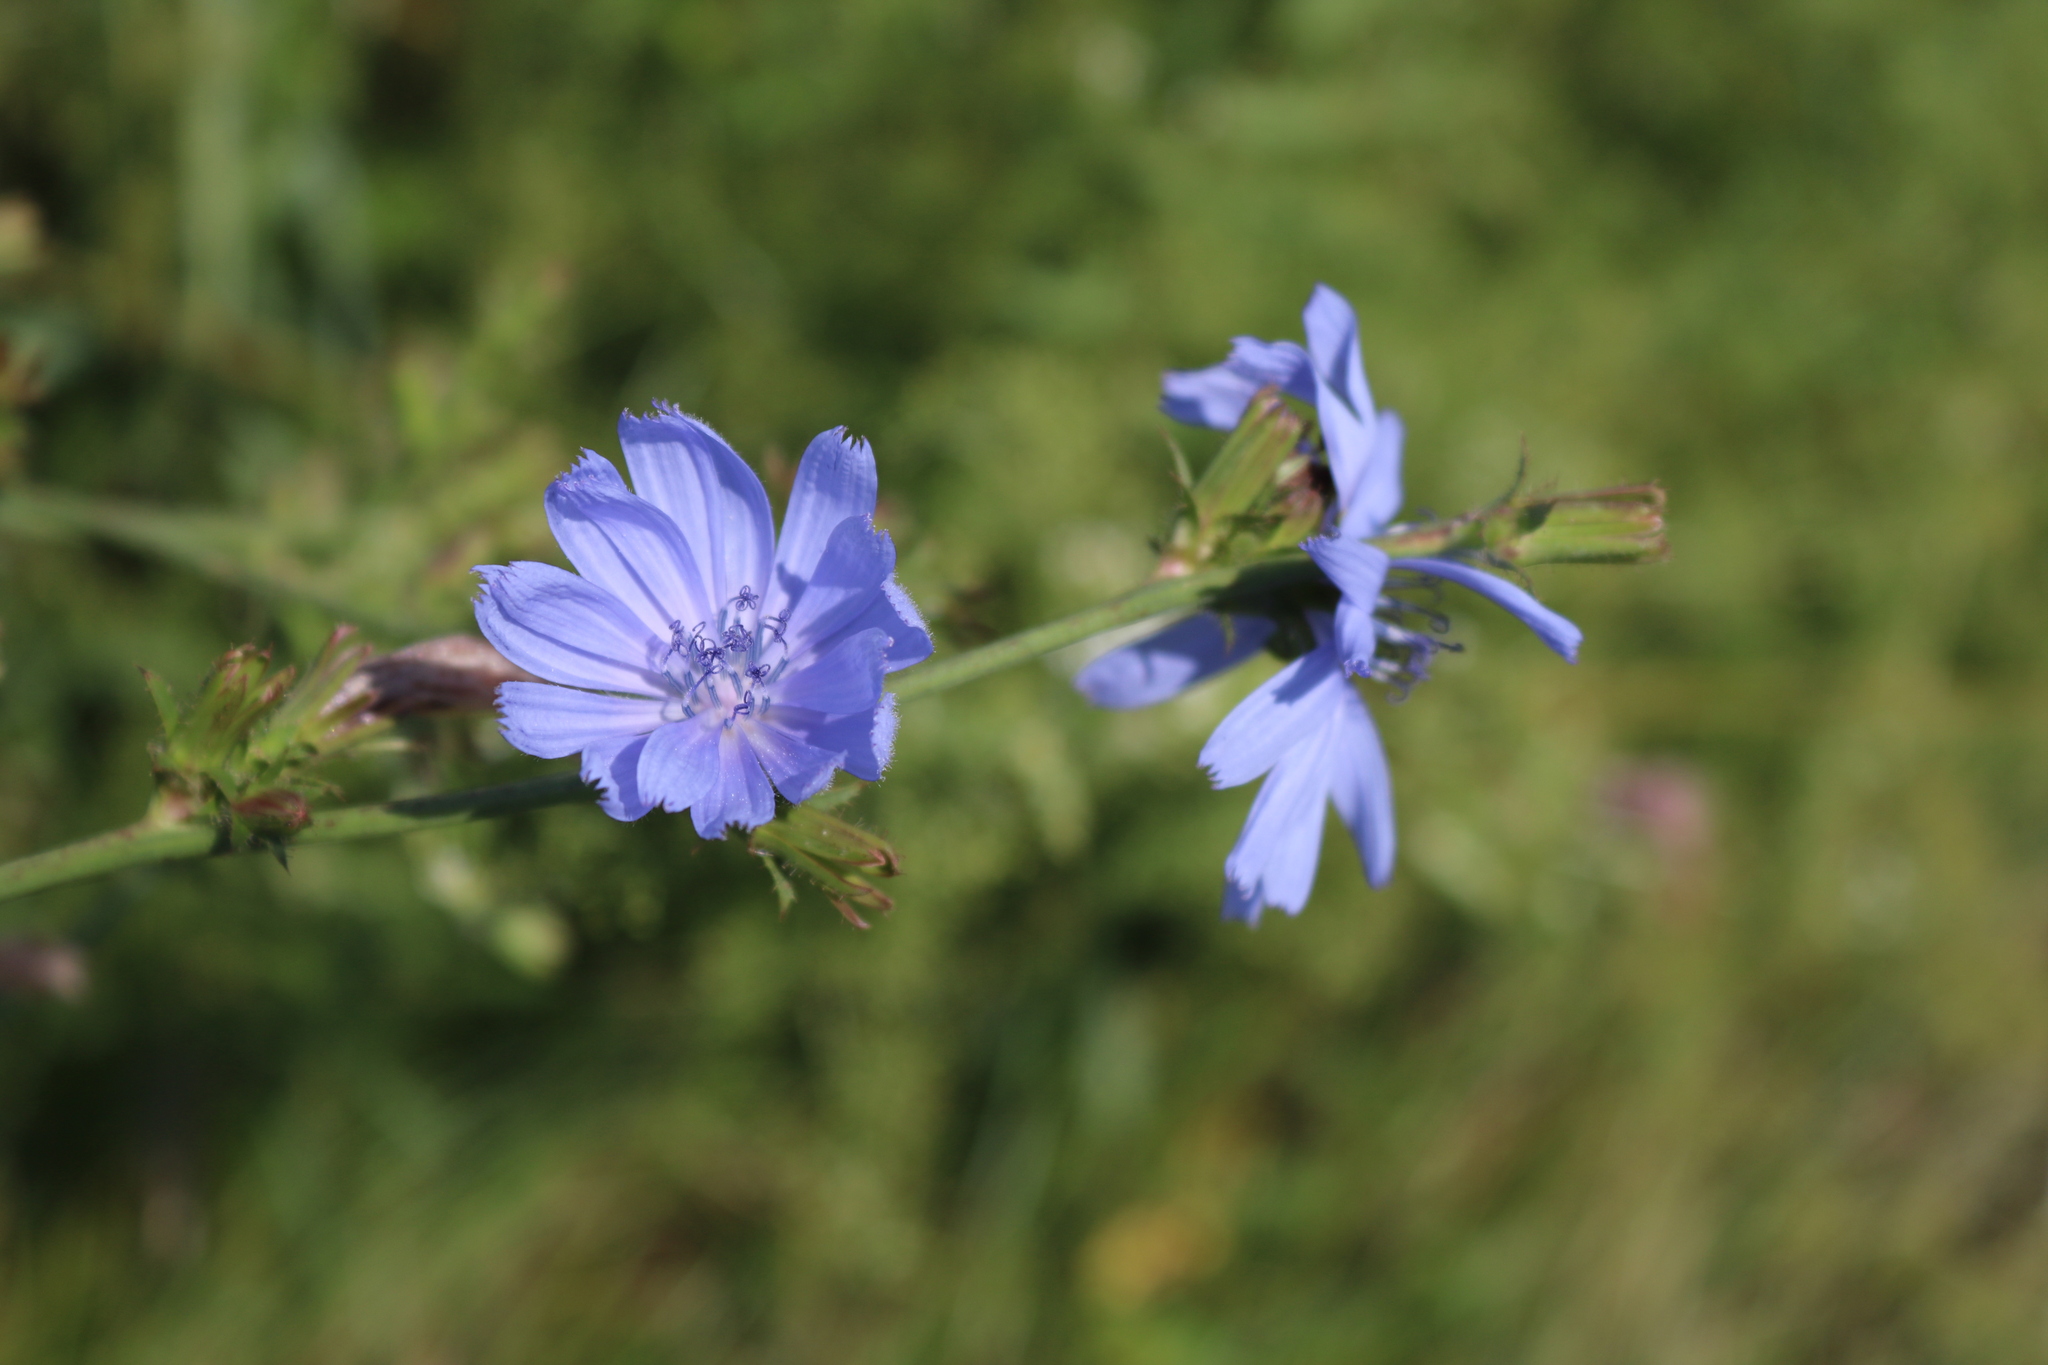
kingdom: Plantae
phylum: Tracheophyta
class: Magnoliopsida
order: Asterales
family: Asteraceae
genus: Cichorium
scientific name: Cichorium intybus
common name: Chicory
